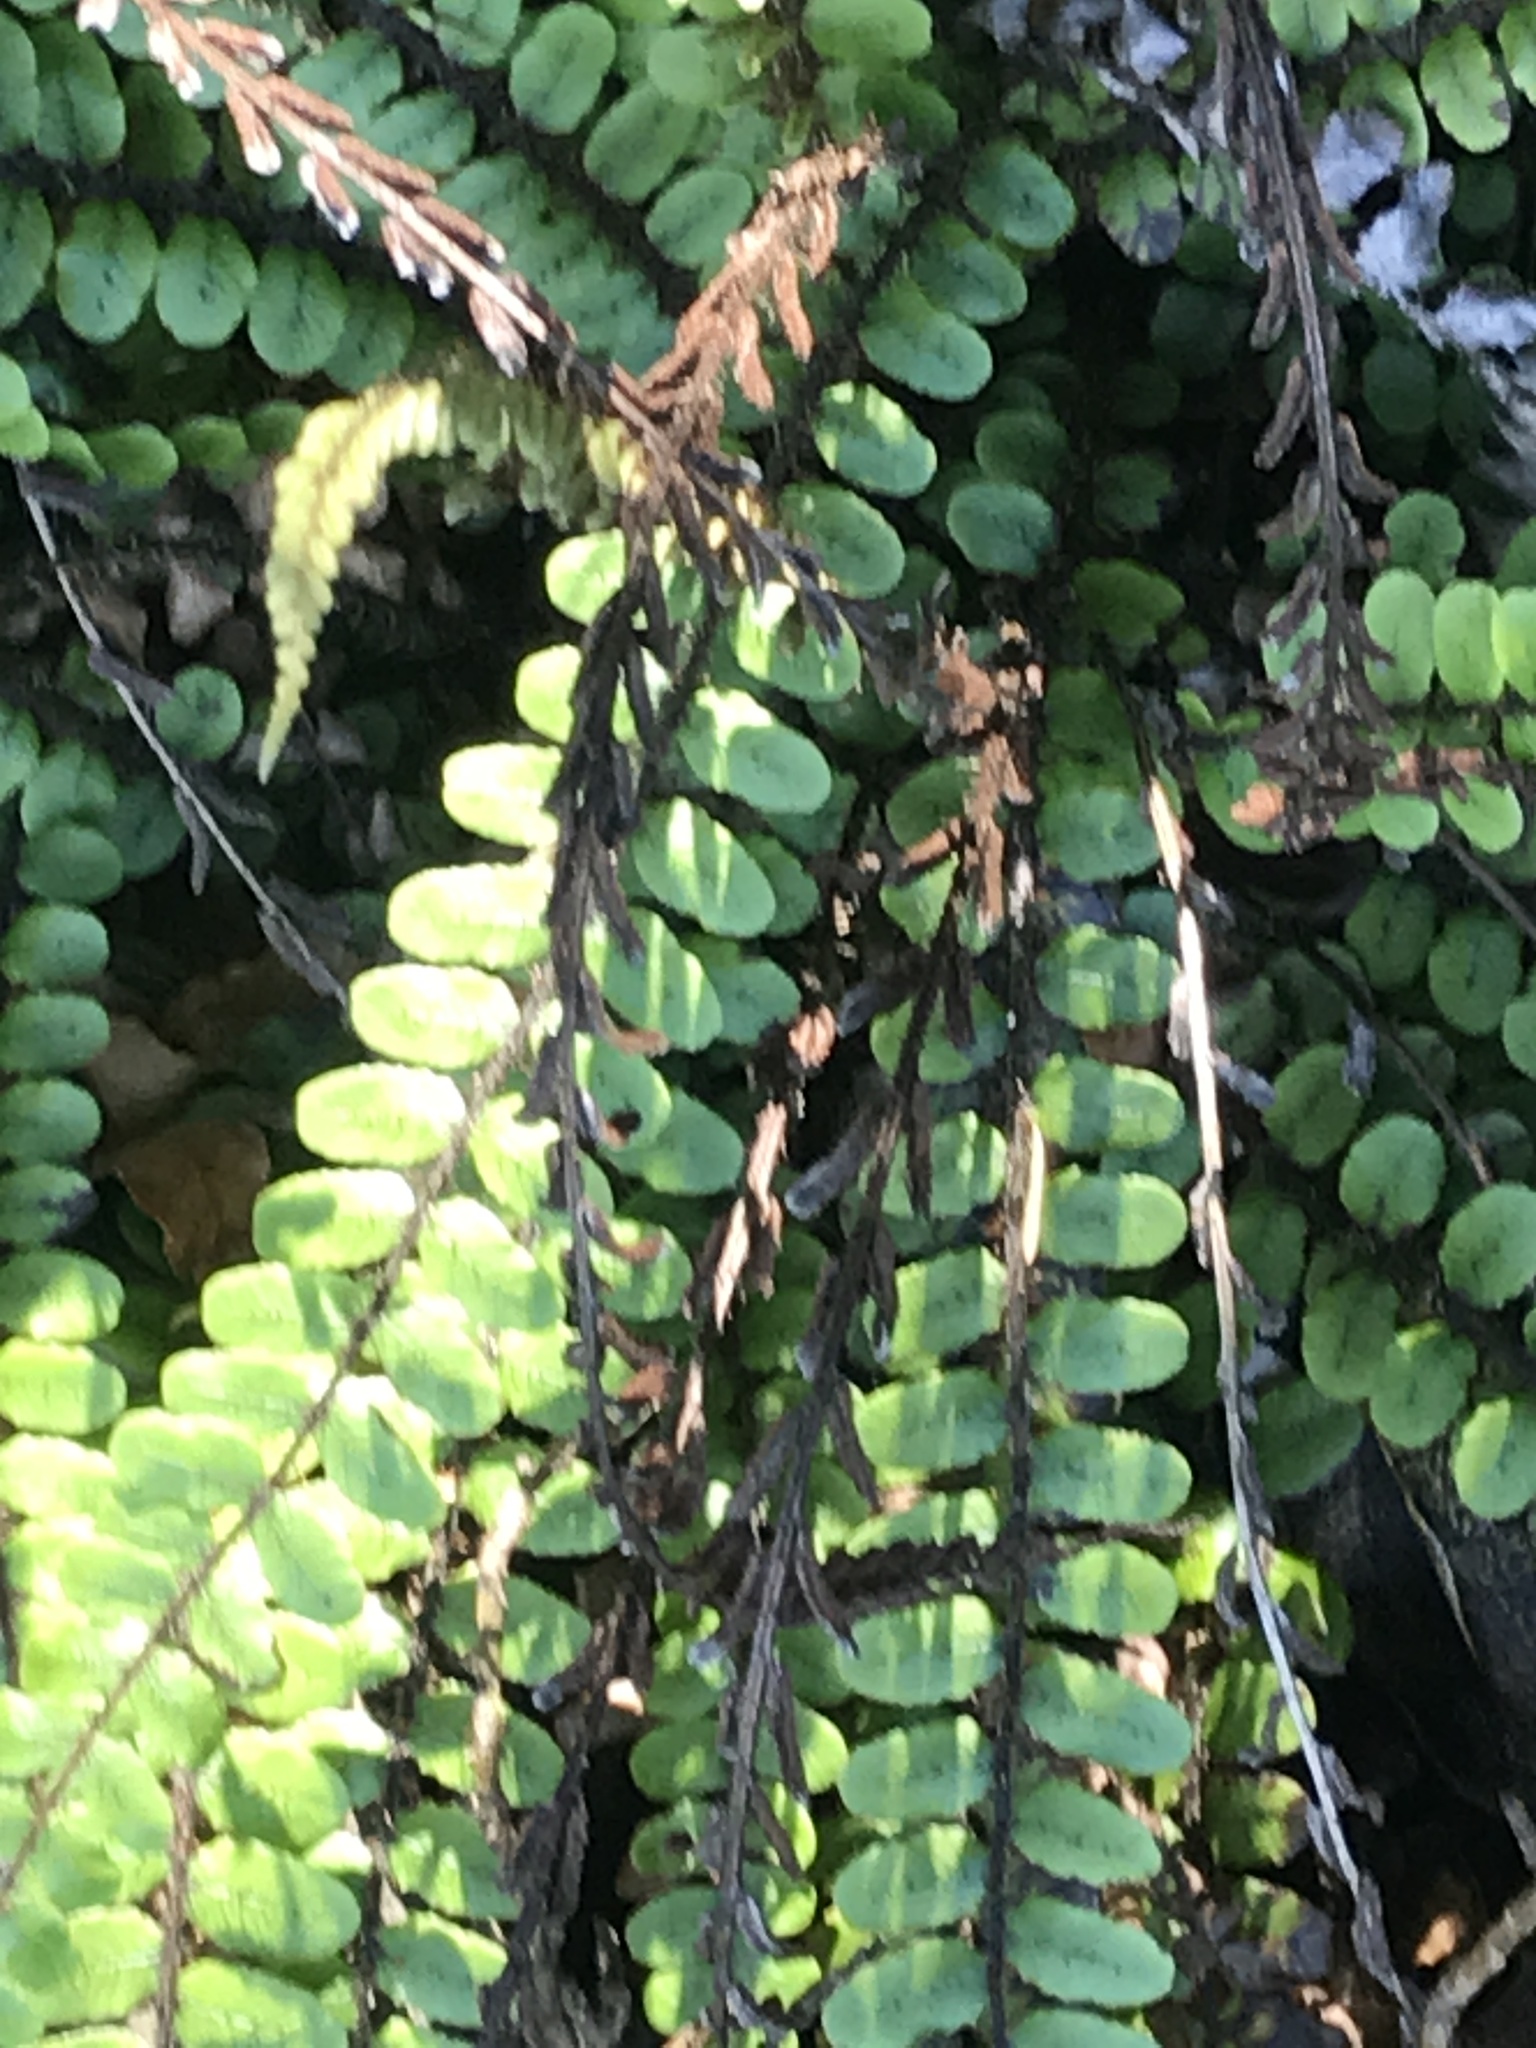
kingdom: Plantae
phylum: Tracheophyta
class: Polypodiopsida
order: Polypodiales
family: Blechnaceae
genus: Cranfillia
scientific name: Cranfillia fluviatilis
